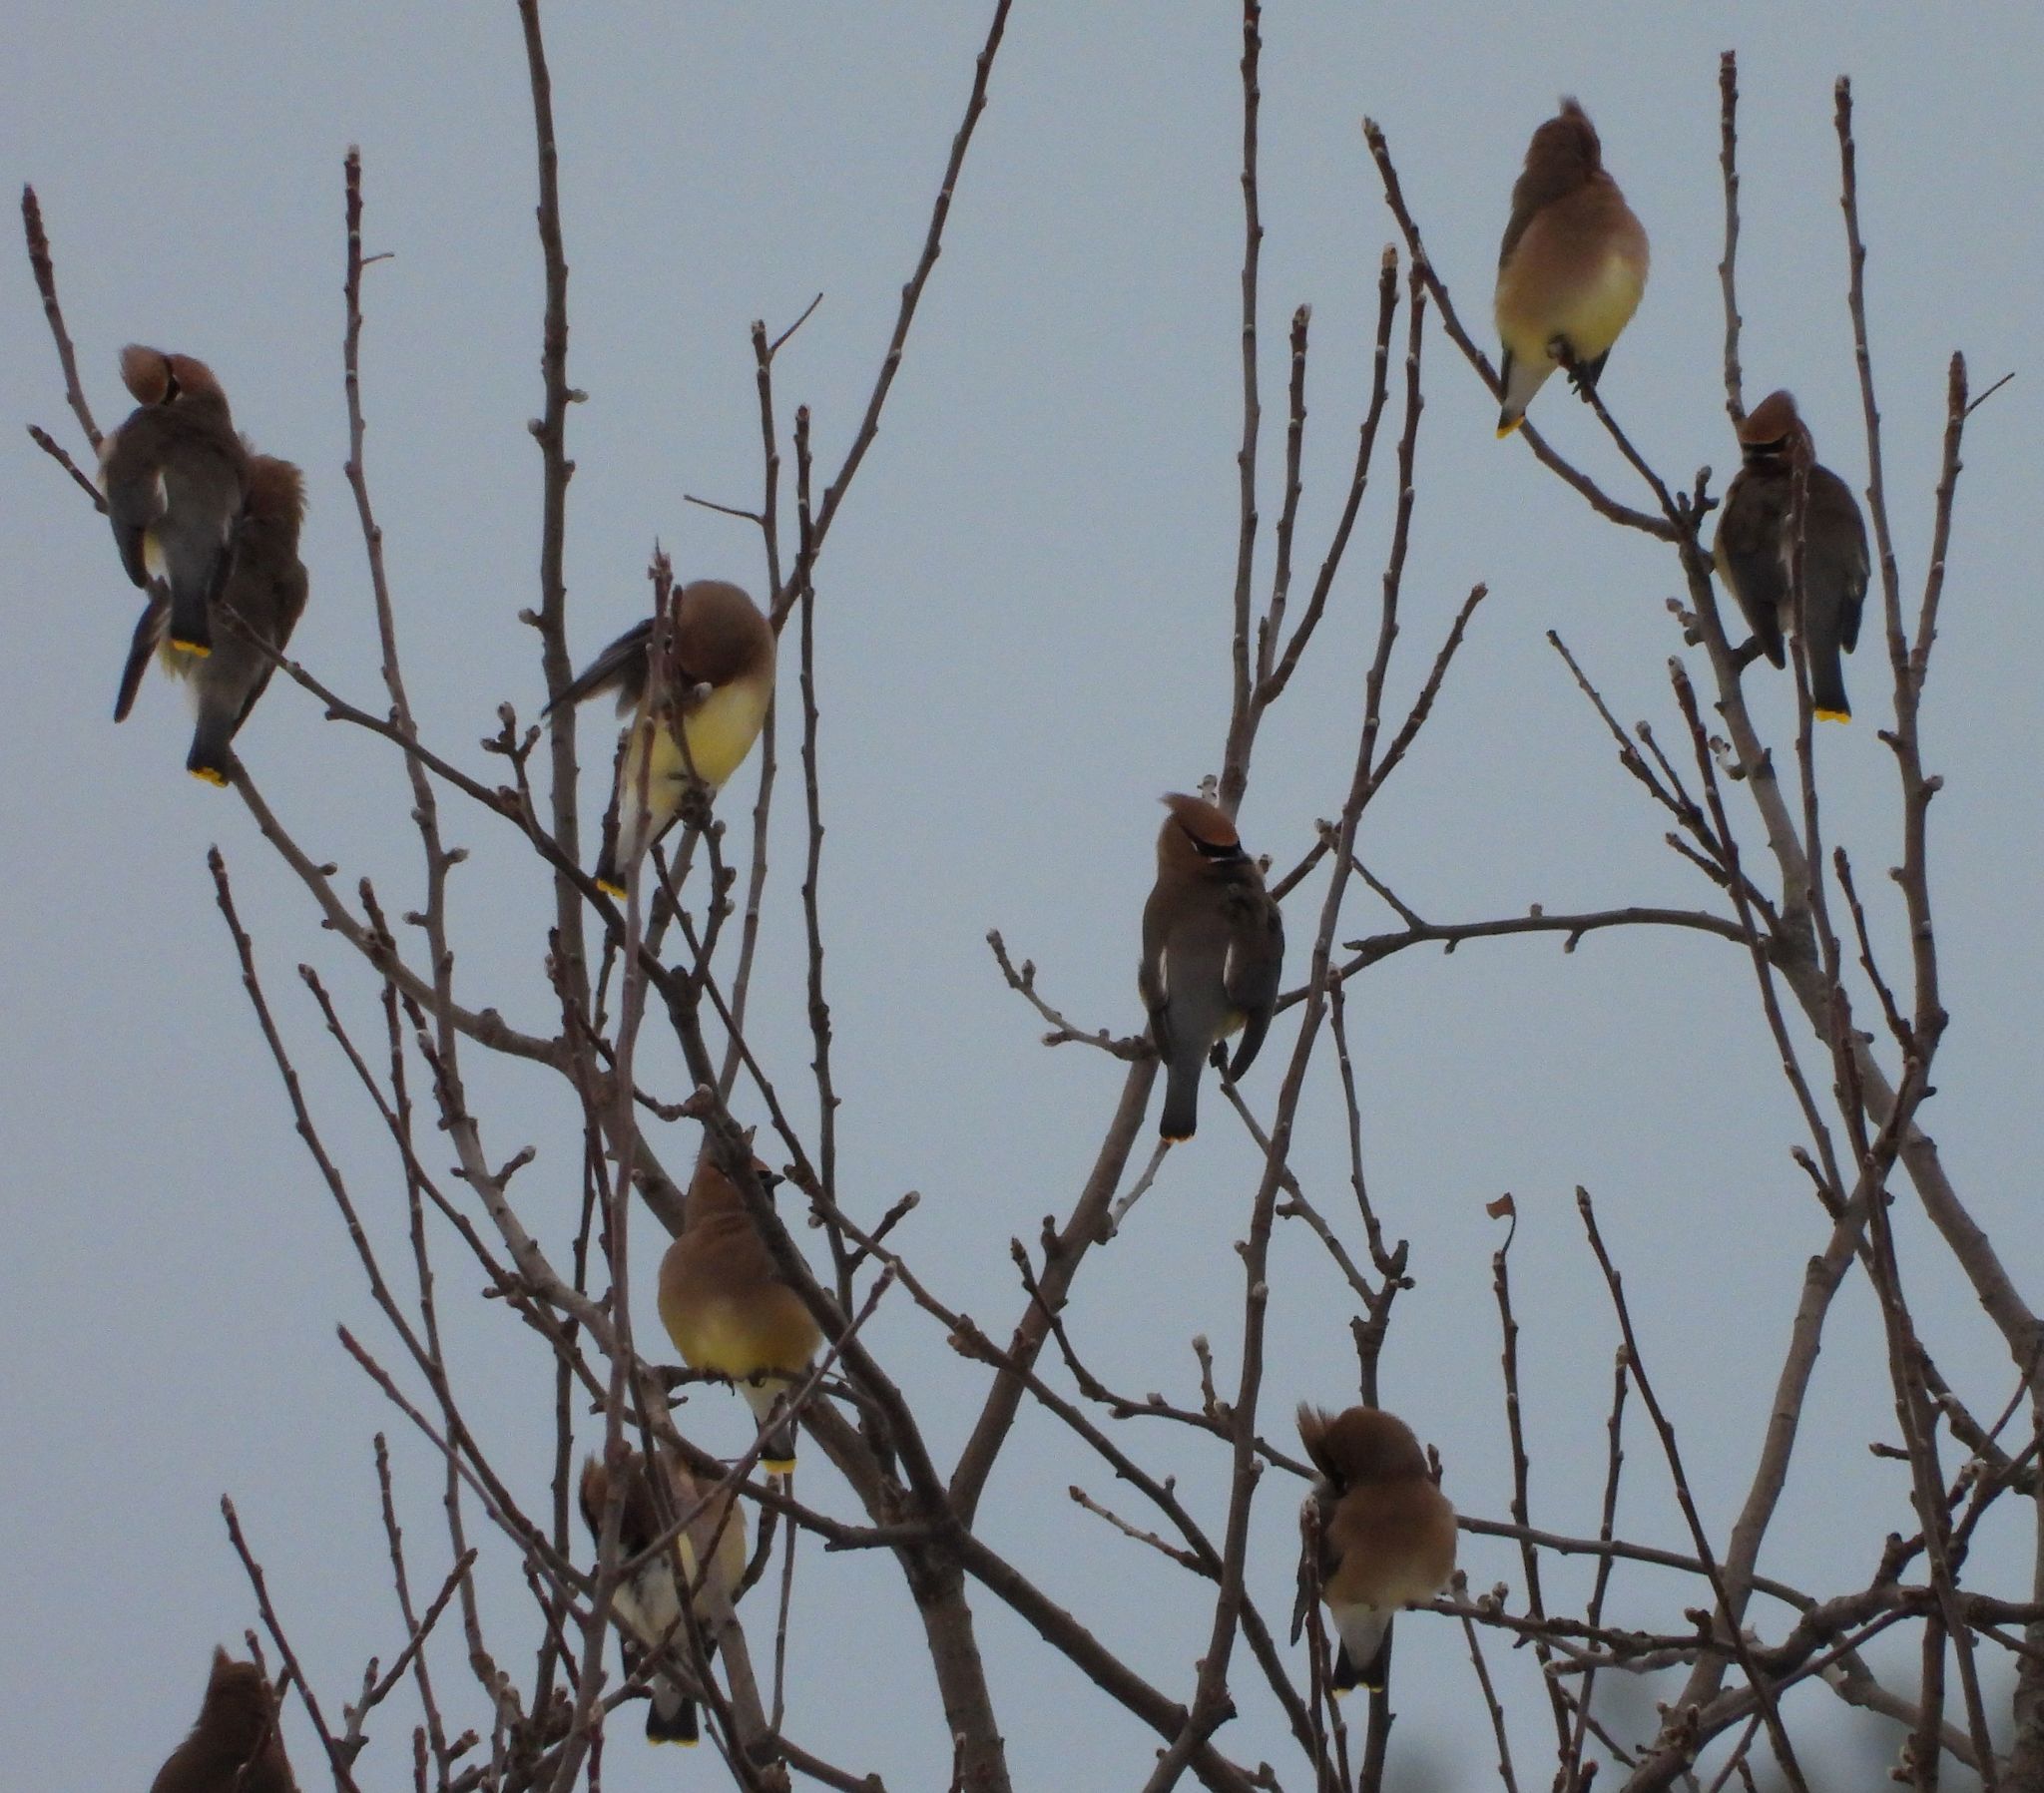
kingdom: Animalia
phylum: Chordata
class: Aves
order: Passeriformes
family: Bombycillidae
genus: Bombycilla
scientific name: Bombycilla cedrorum
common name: Cedar waxwing
